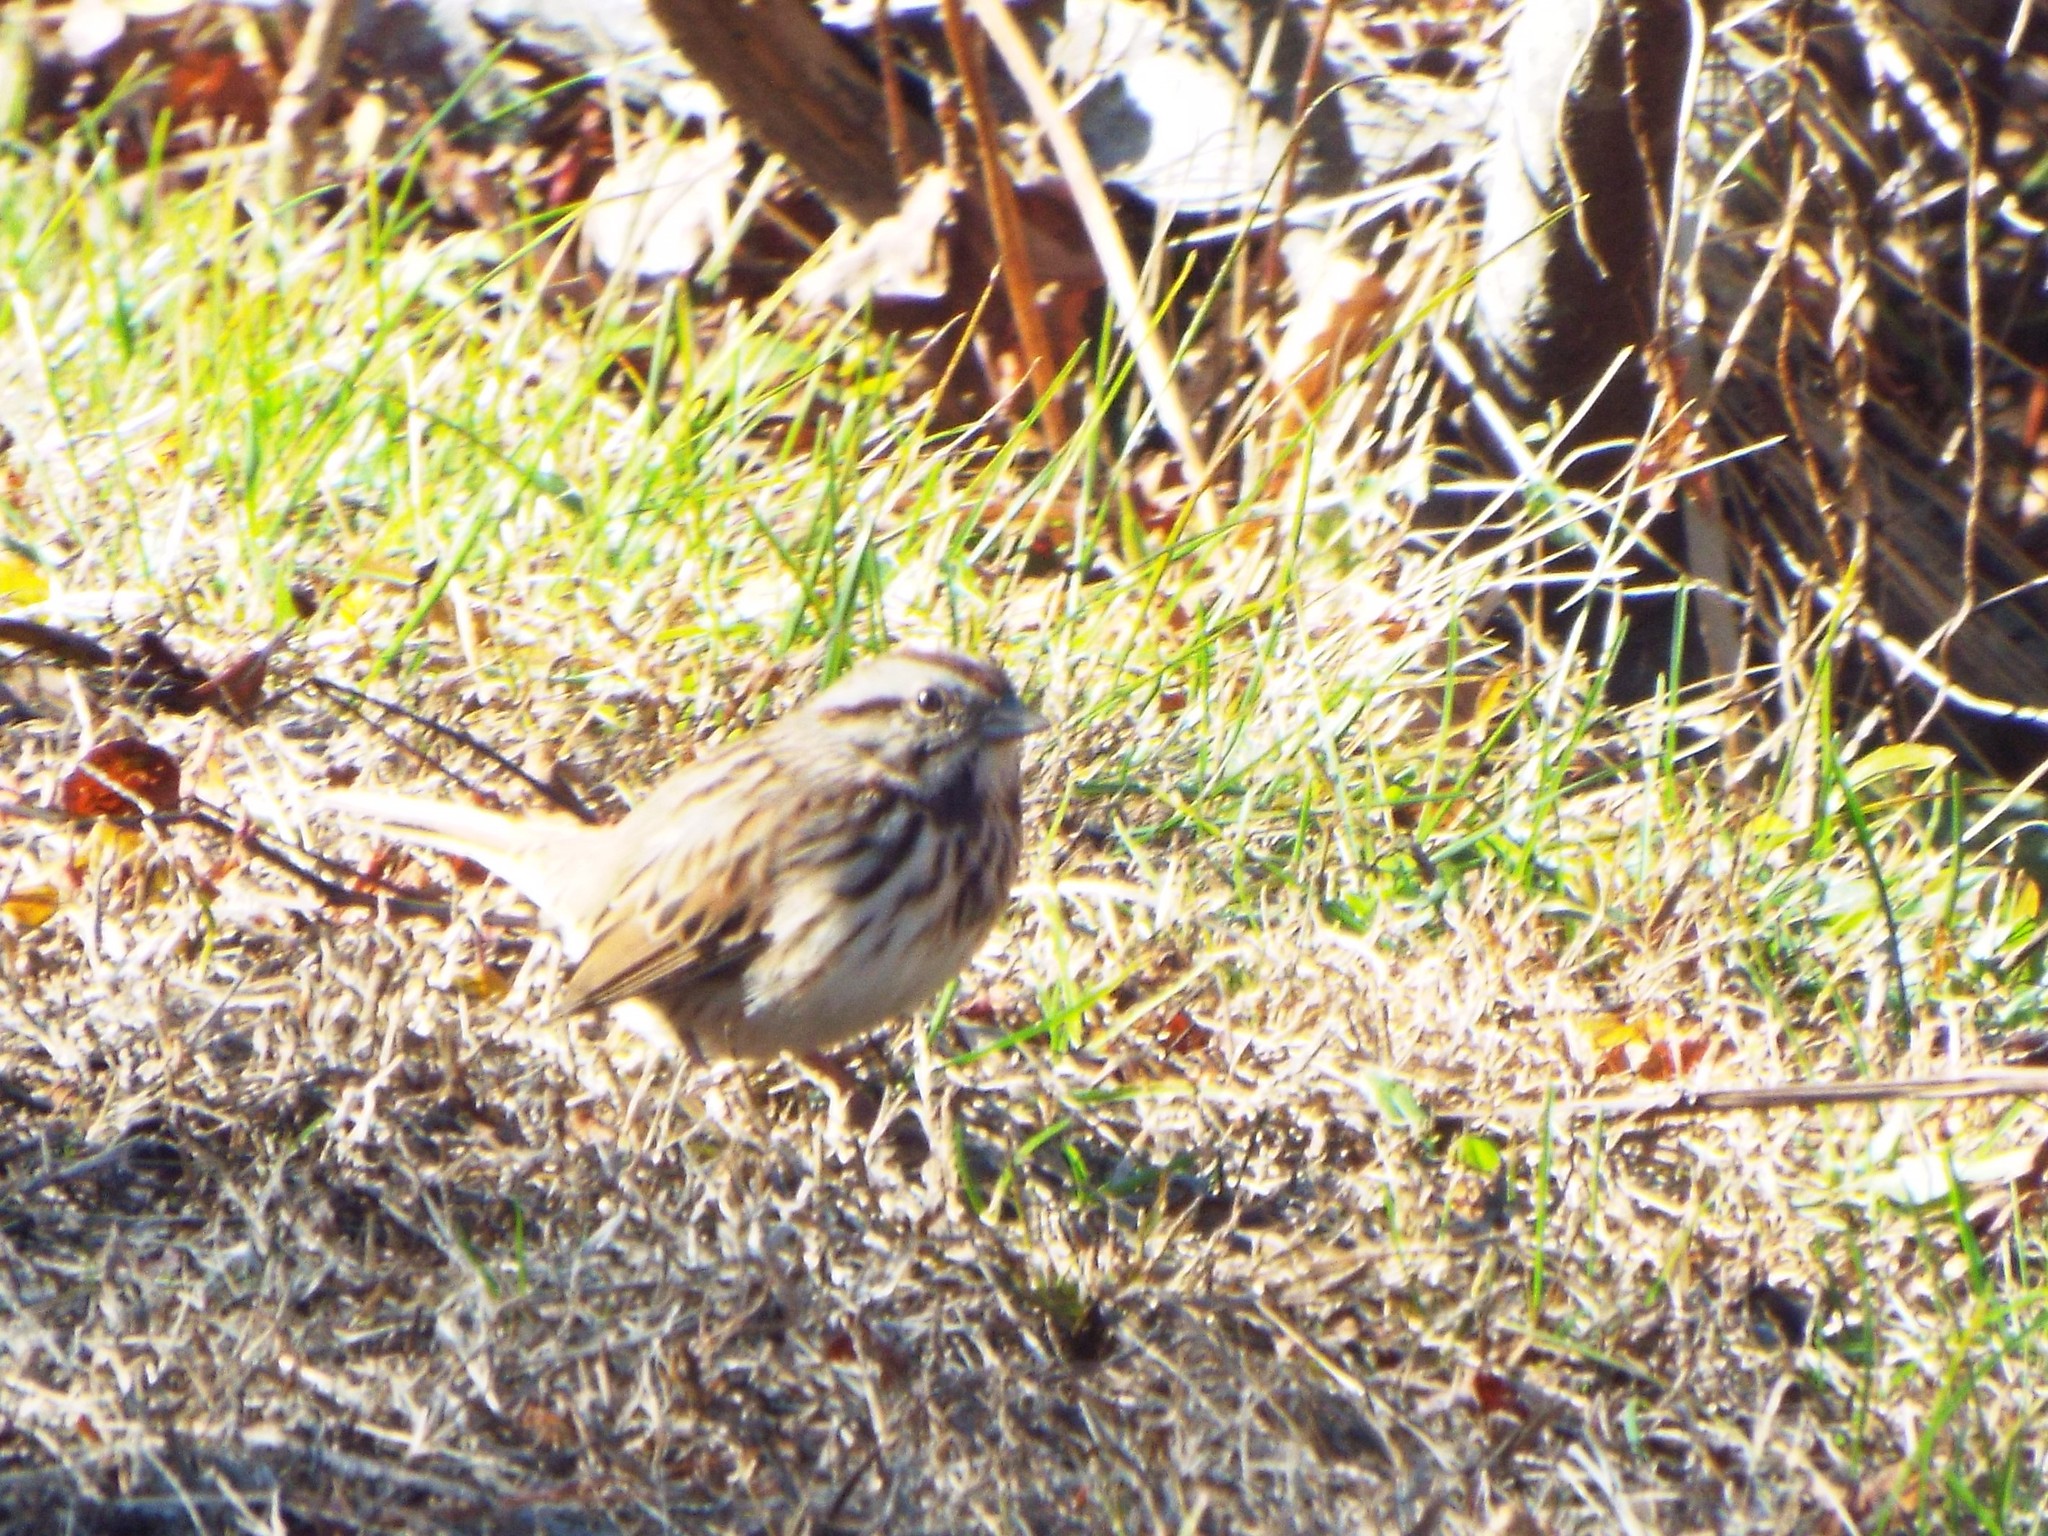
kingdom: Animalia
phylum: Chordata
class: Aves
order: Passeriformes
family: Passerellidae
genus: Melospiza
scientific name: Melospiza melodia
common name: Song sparrow
